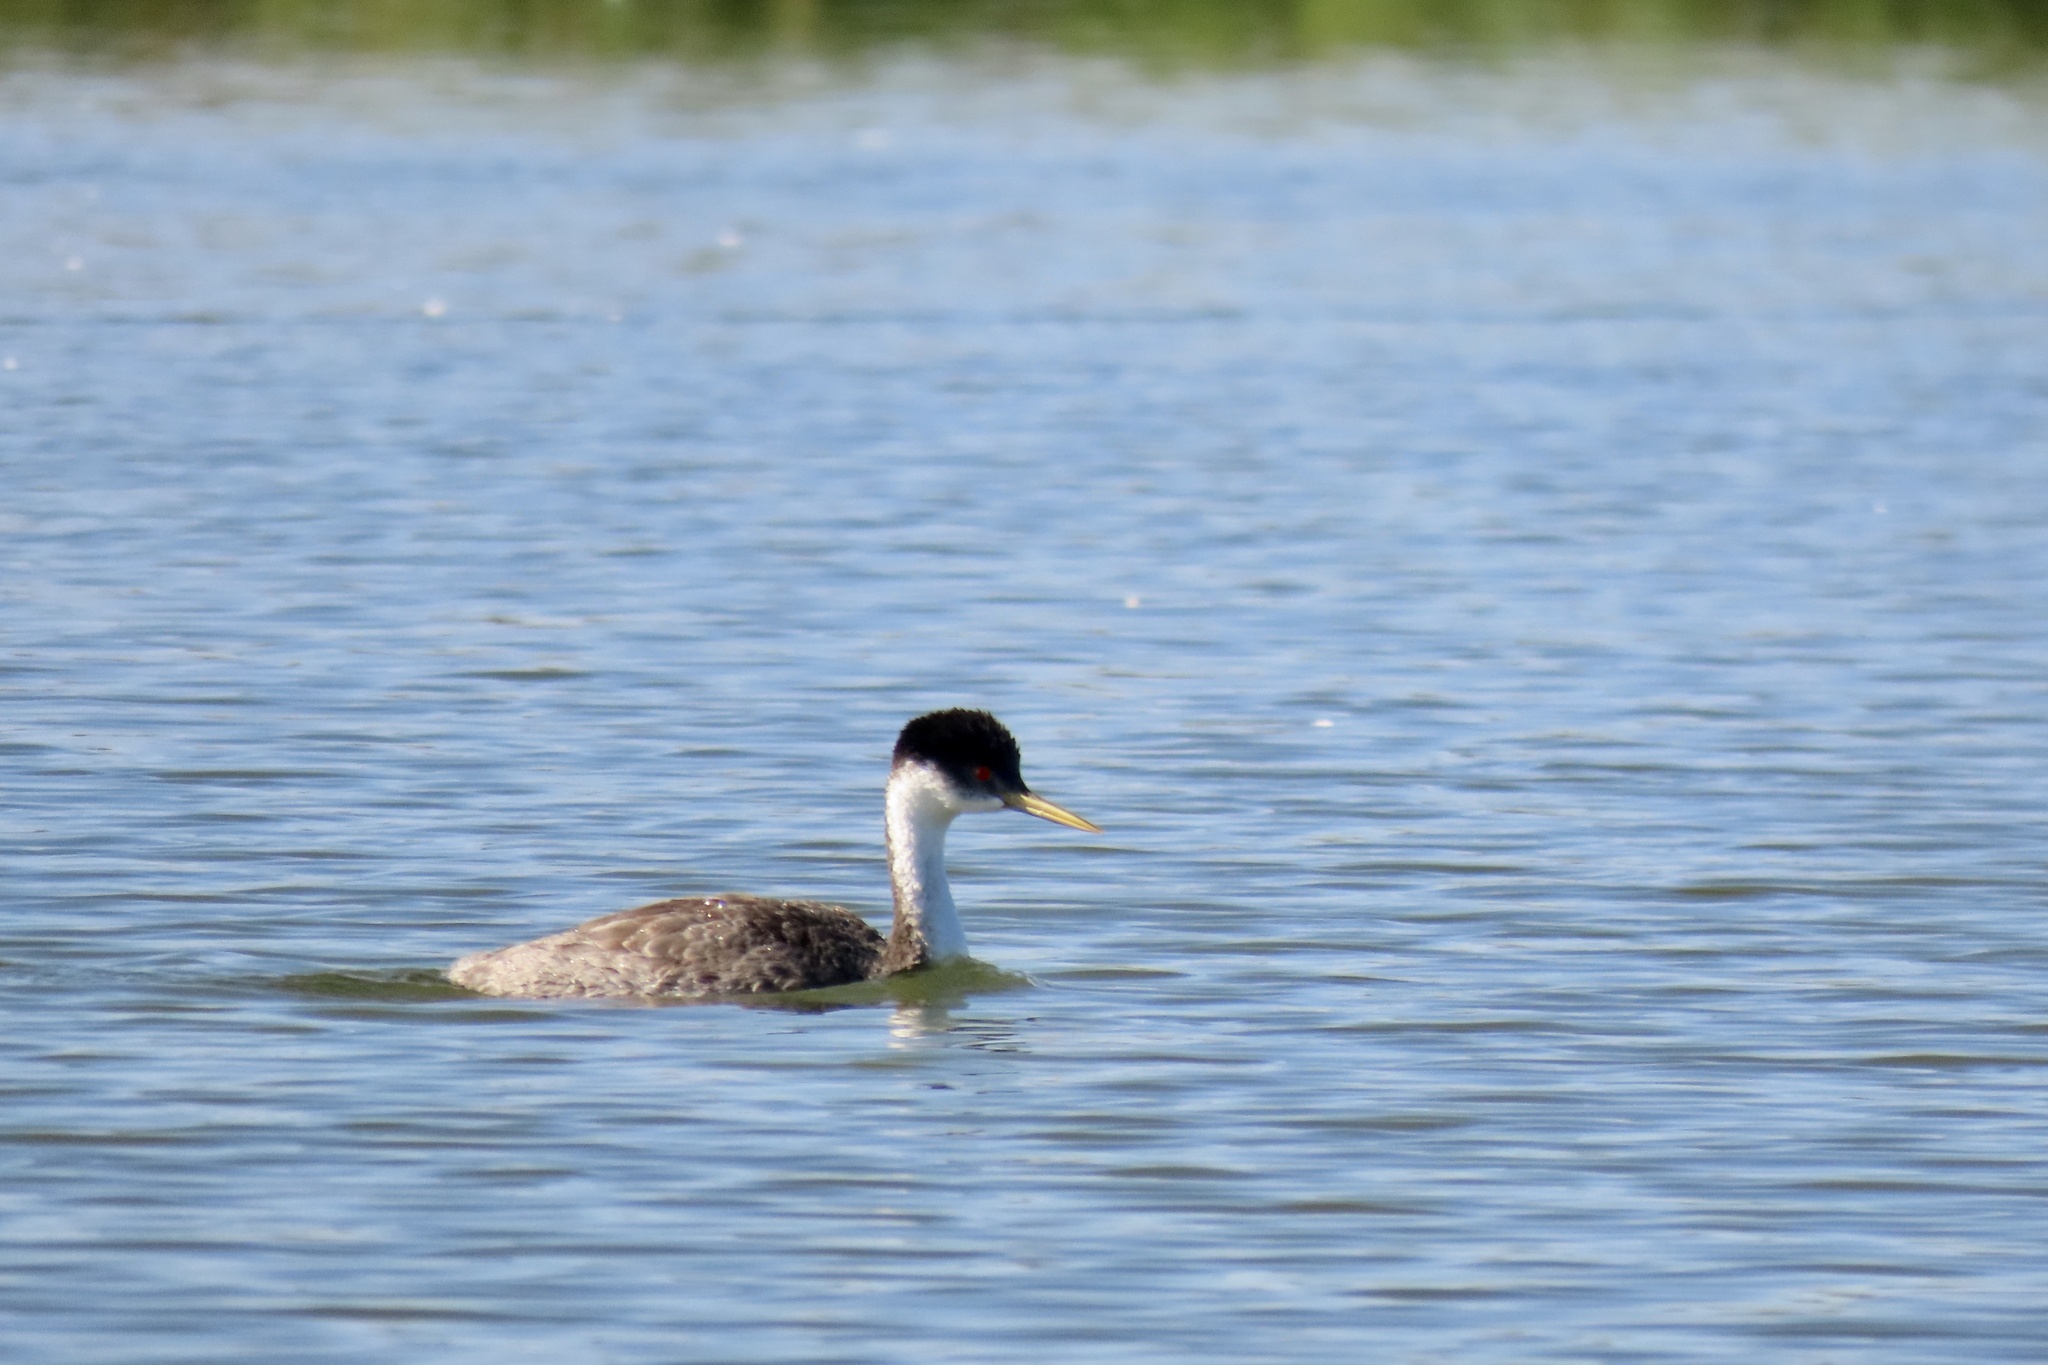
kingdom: Animalia
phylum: Chordata
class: Aves
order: Podicipediformes
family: Podicipedidae
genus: Aechmophorus
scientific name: Aechmophorus occidentalis
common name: Western grebe
